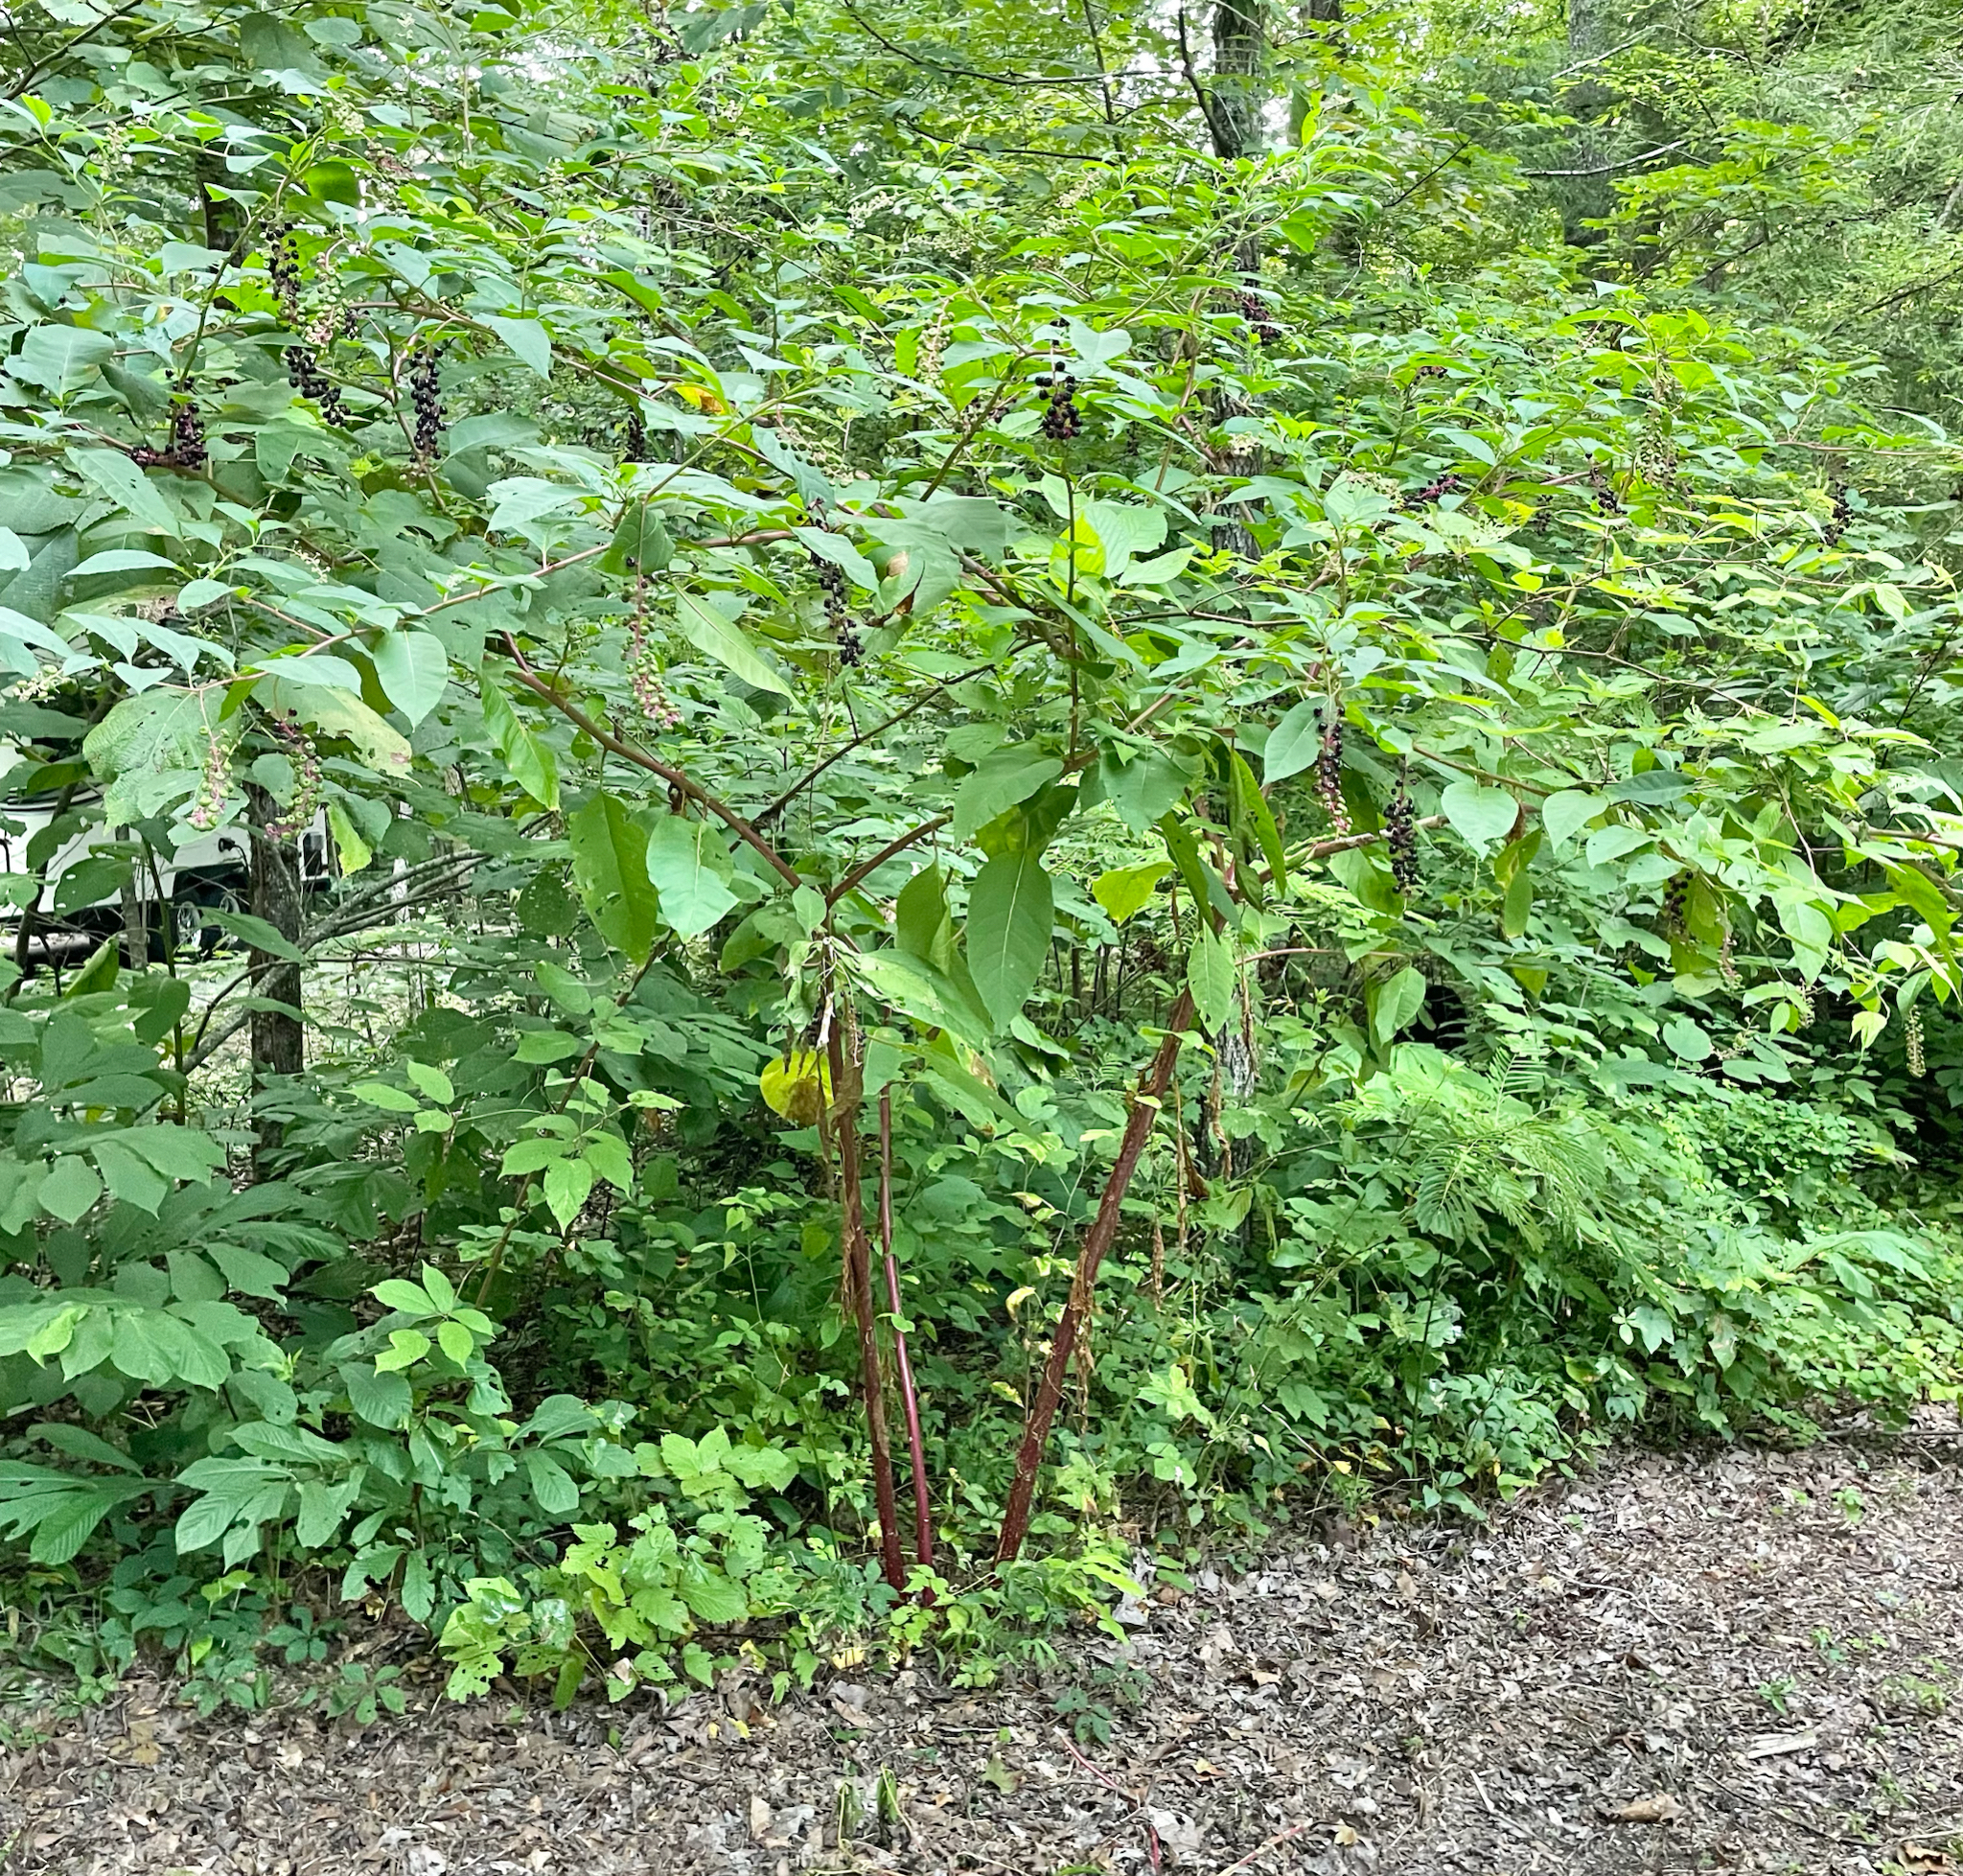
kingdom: Plantae
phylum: Tracheophyta
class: Magnoliopsida
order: Caryophyllales
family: Phytolaccaceae
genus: Phytolacca
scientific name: Phytolacca americana
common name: American pokeweed
